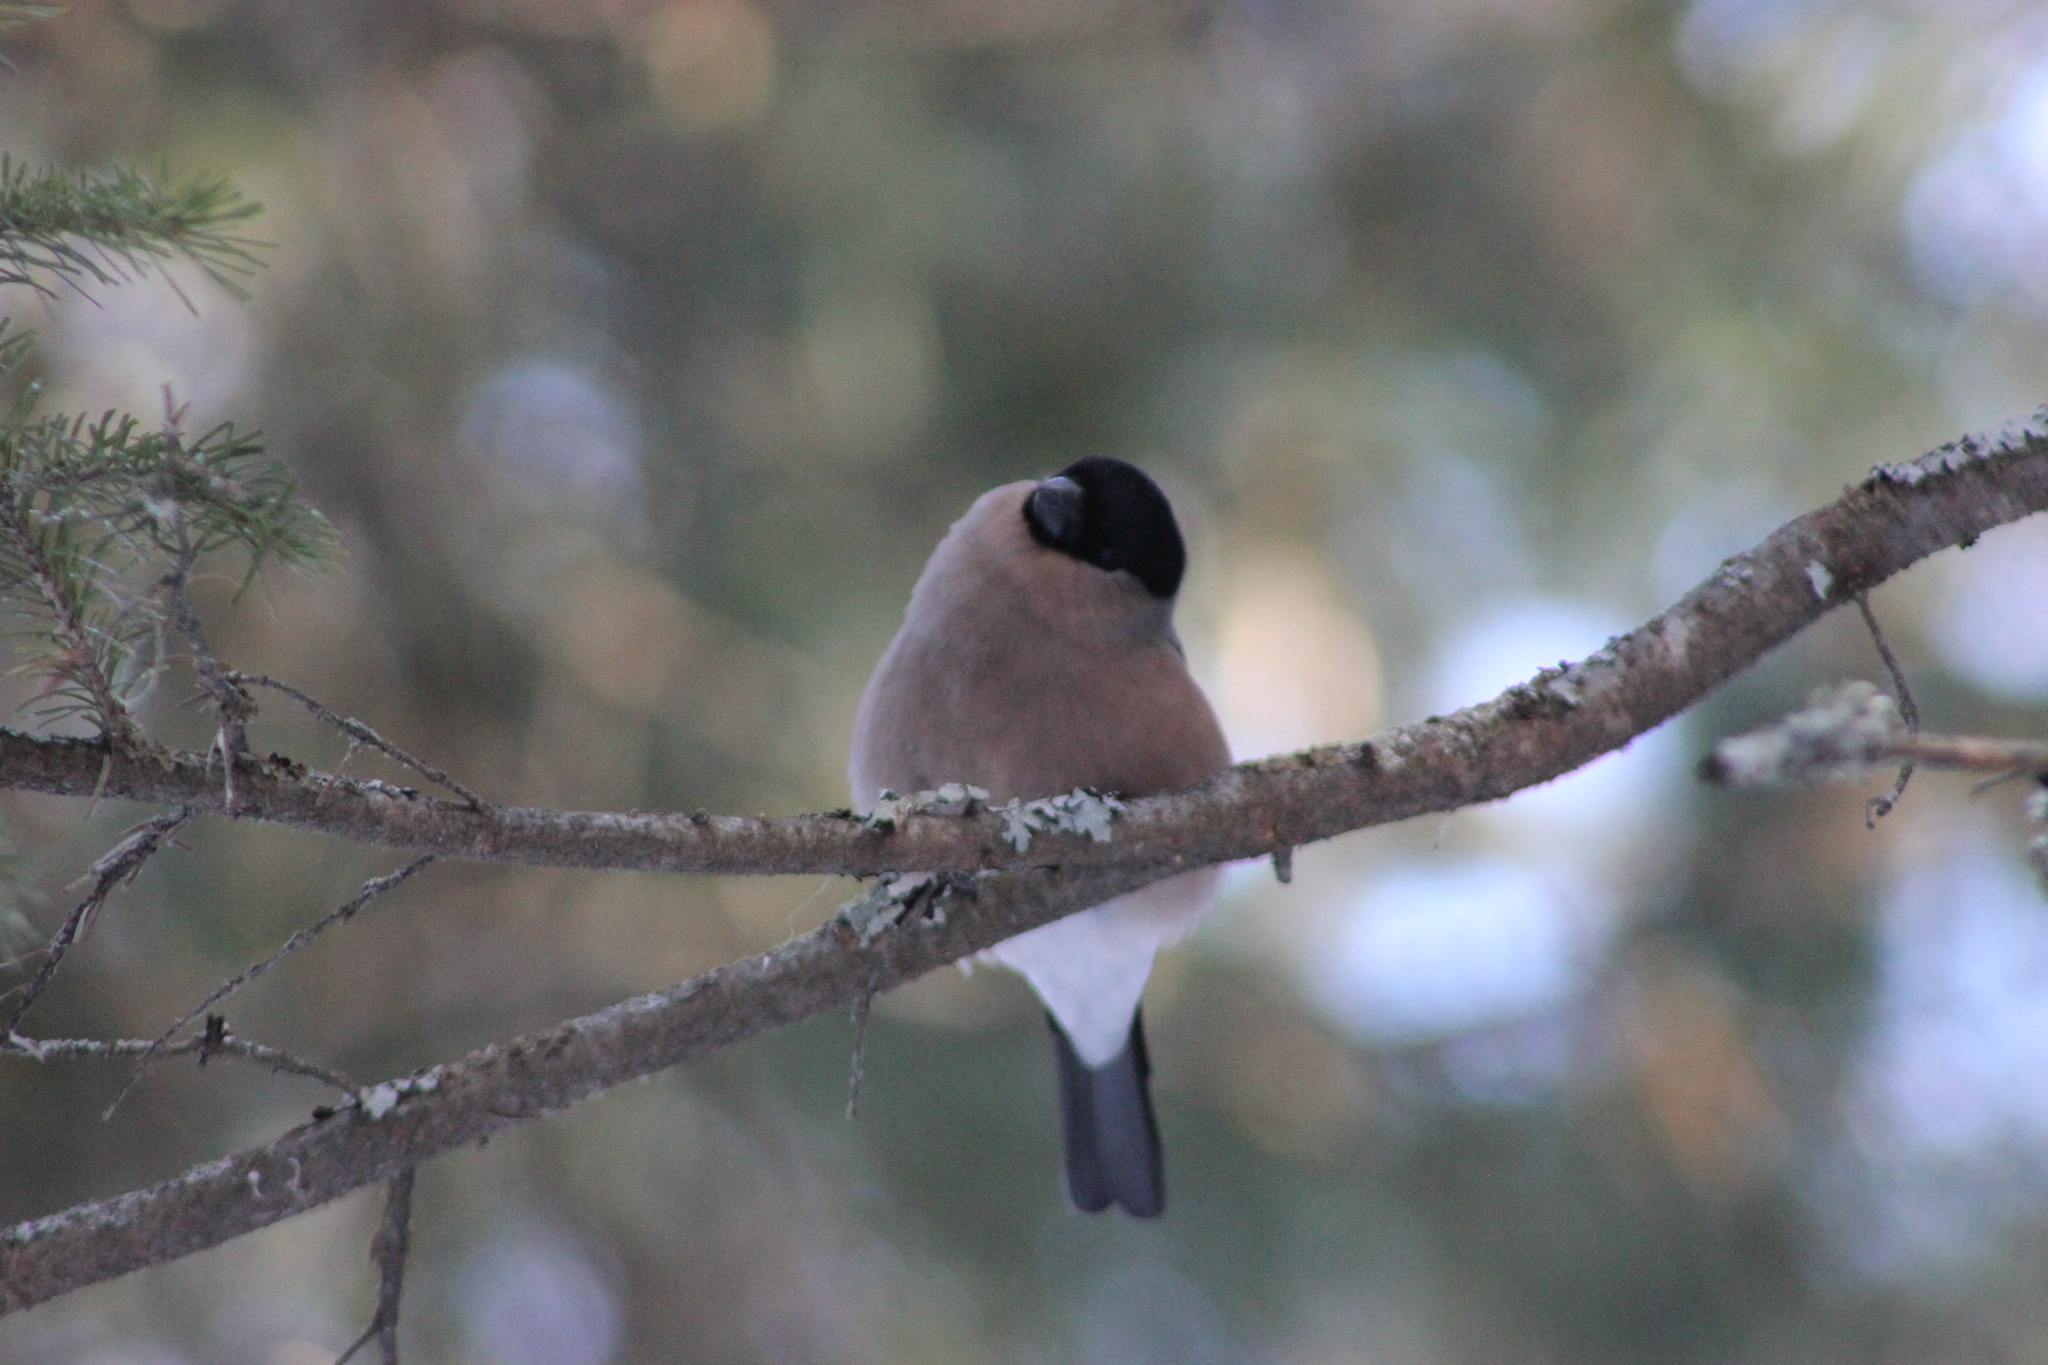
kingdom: Animalia
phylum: Chordata
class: Aves
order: Passeriformes
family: Fringillidae
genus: Pyrrhula
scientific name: Pyrrhula pyrrhula
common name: Eurasian bullfinch
